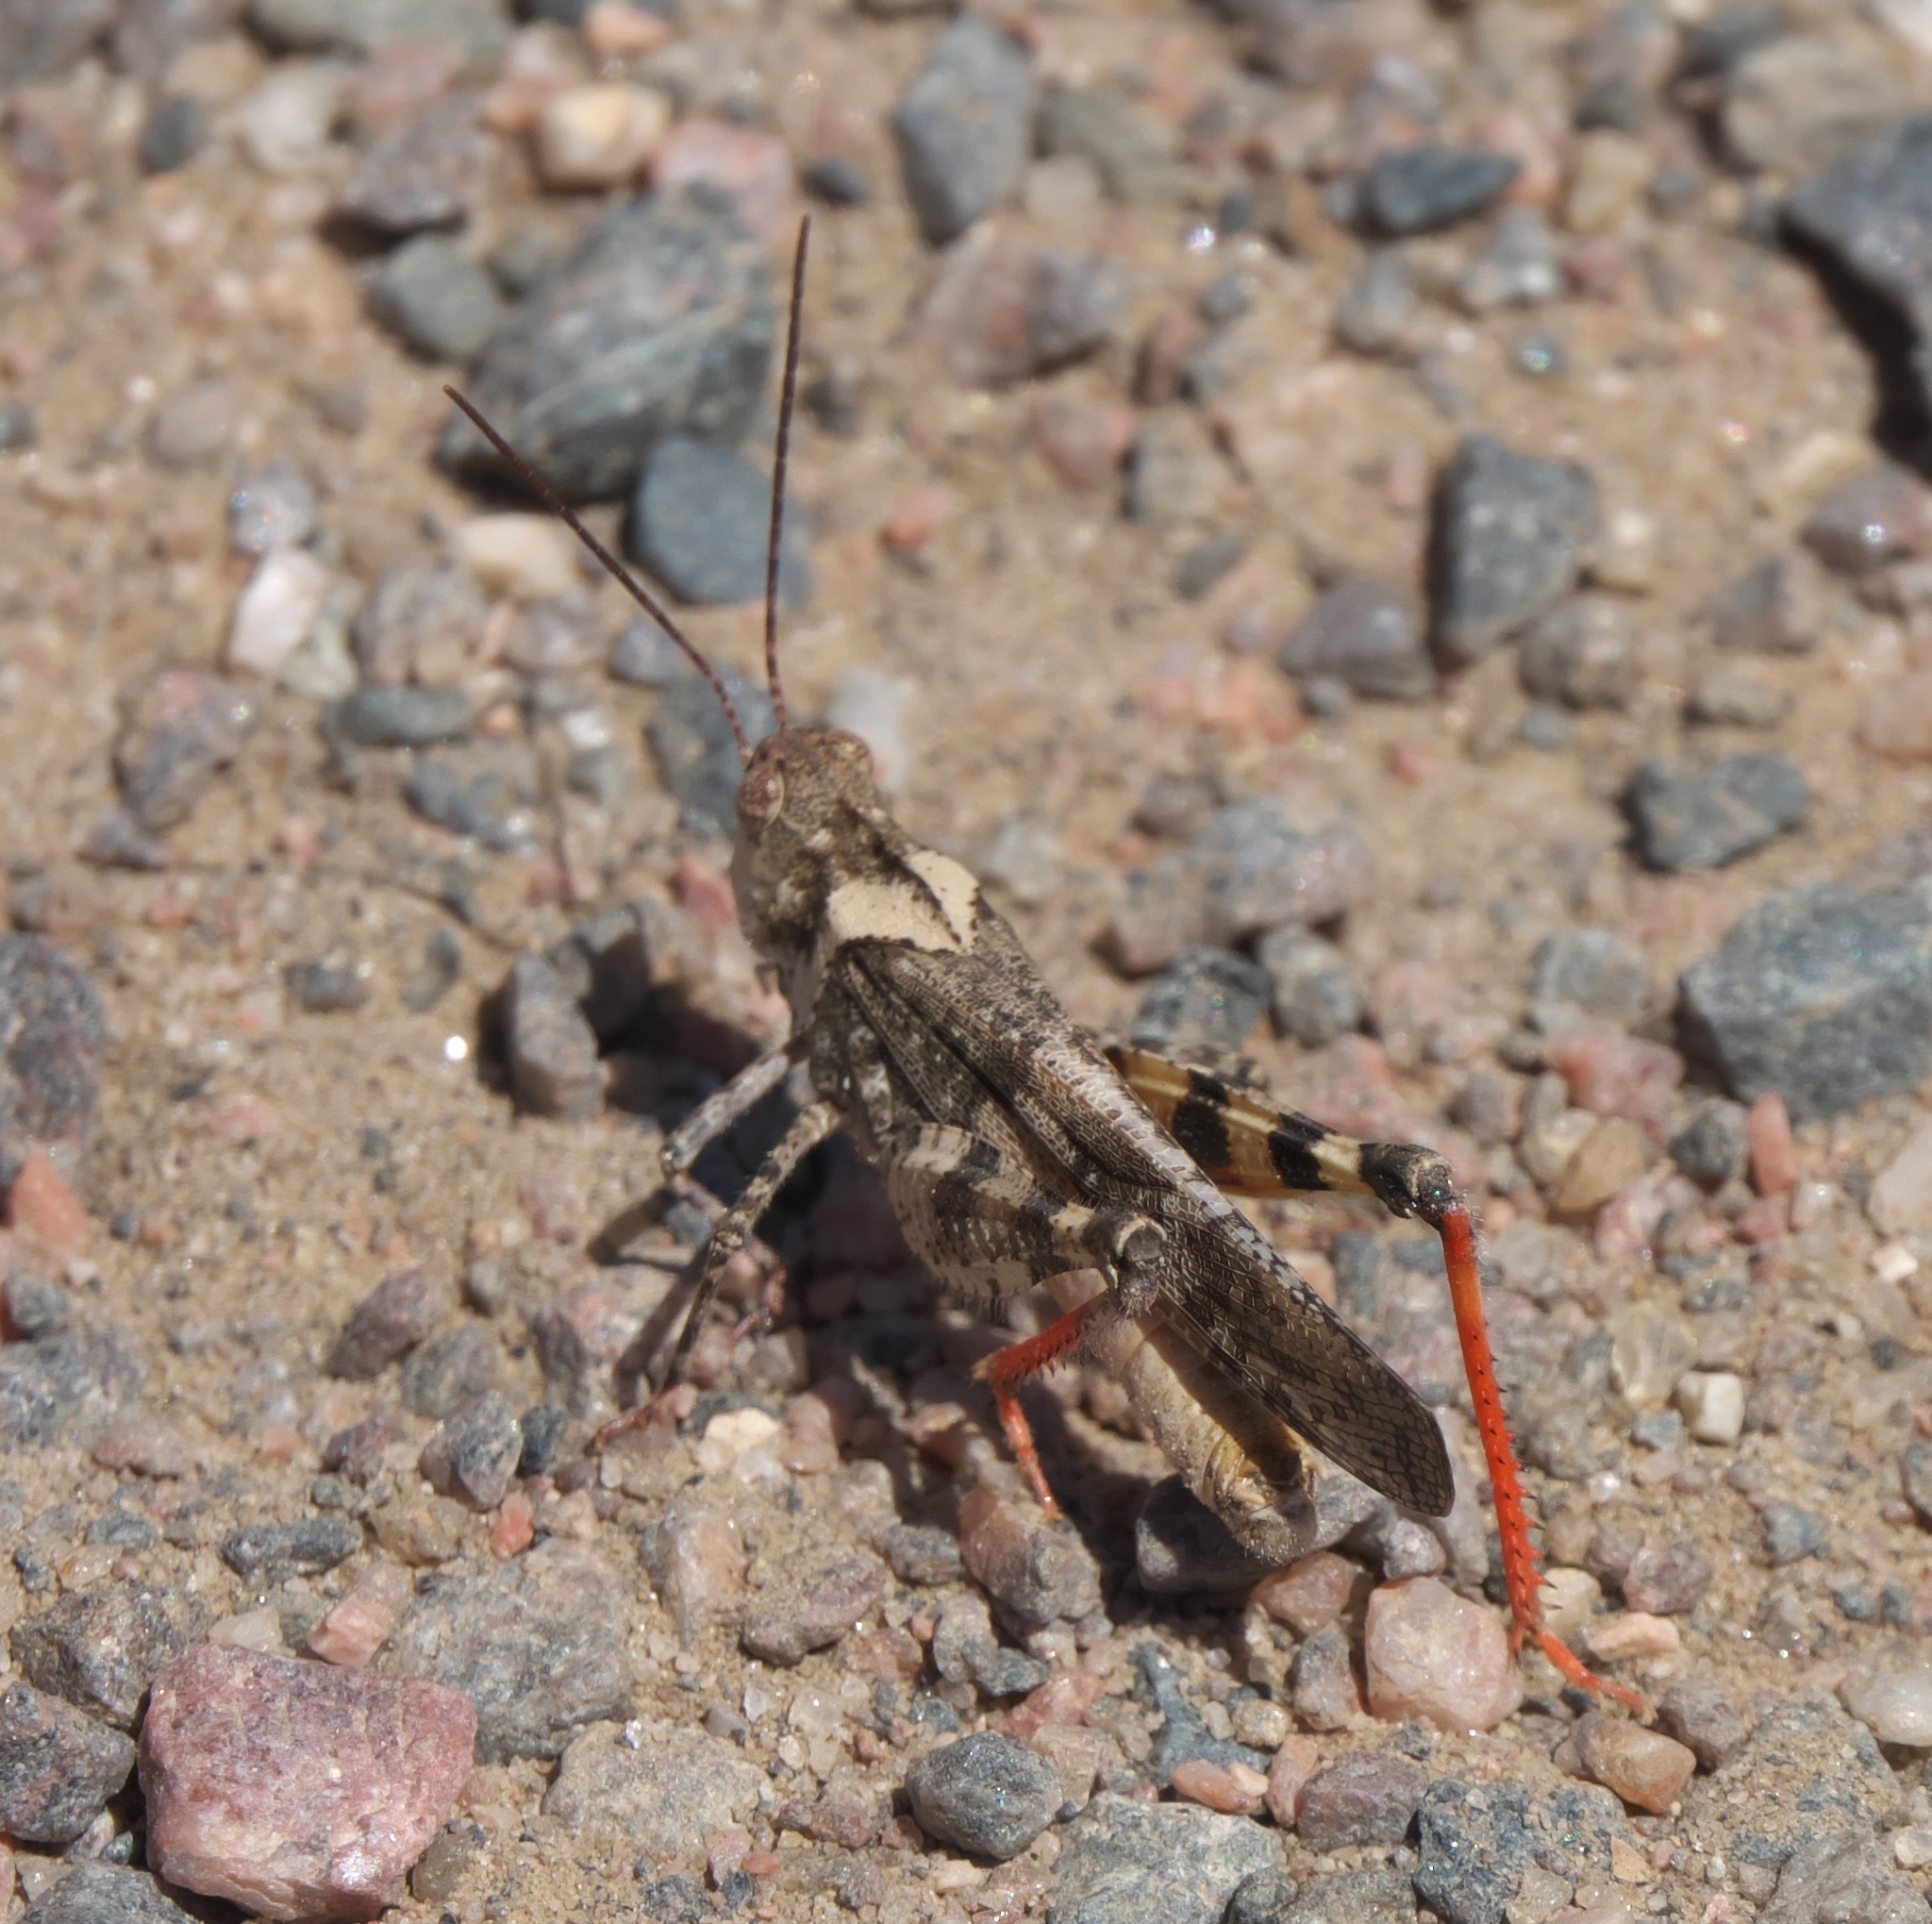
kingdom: Animalia
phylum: Arthropoda
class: Insecta
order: Orthoptera
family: Acrididae
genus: Spharagemon
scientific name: Spharagemon collare
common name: Mottled sand grasshopper
